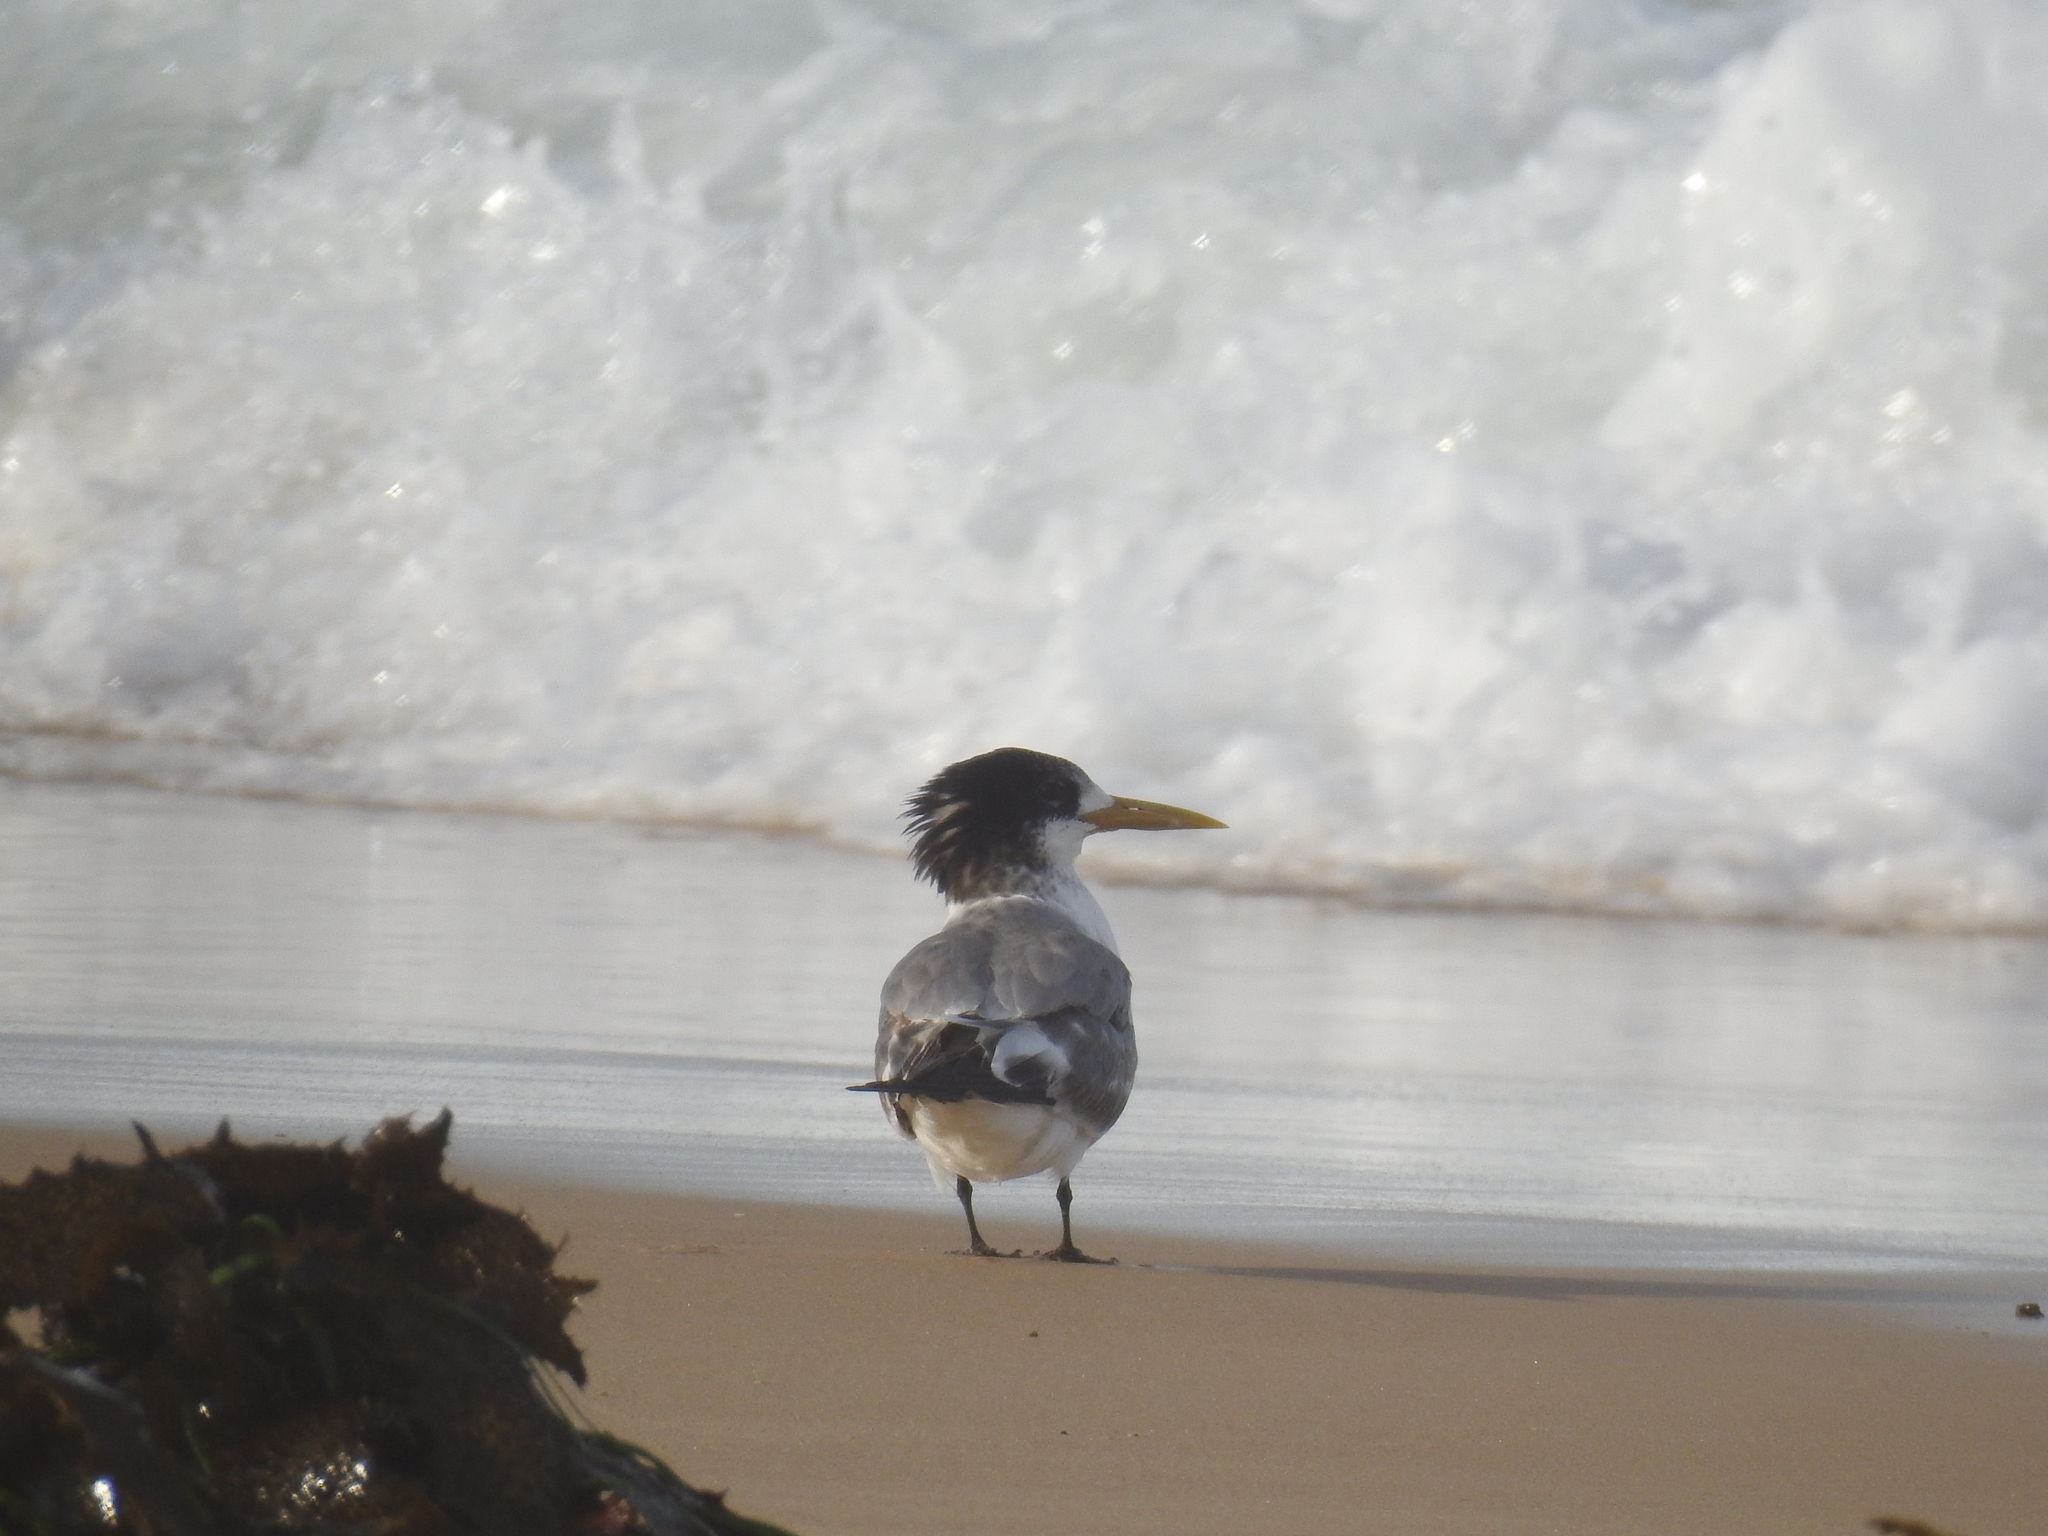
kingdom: Animalia
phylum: Chordata
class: Aves
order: Charadriiformes
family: Laridae
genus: Thalasseus
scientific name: Thalasseus bergii
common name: Greater crested tern
